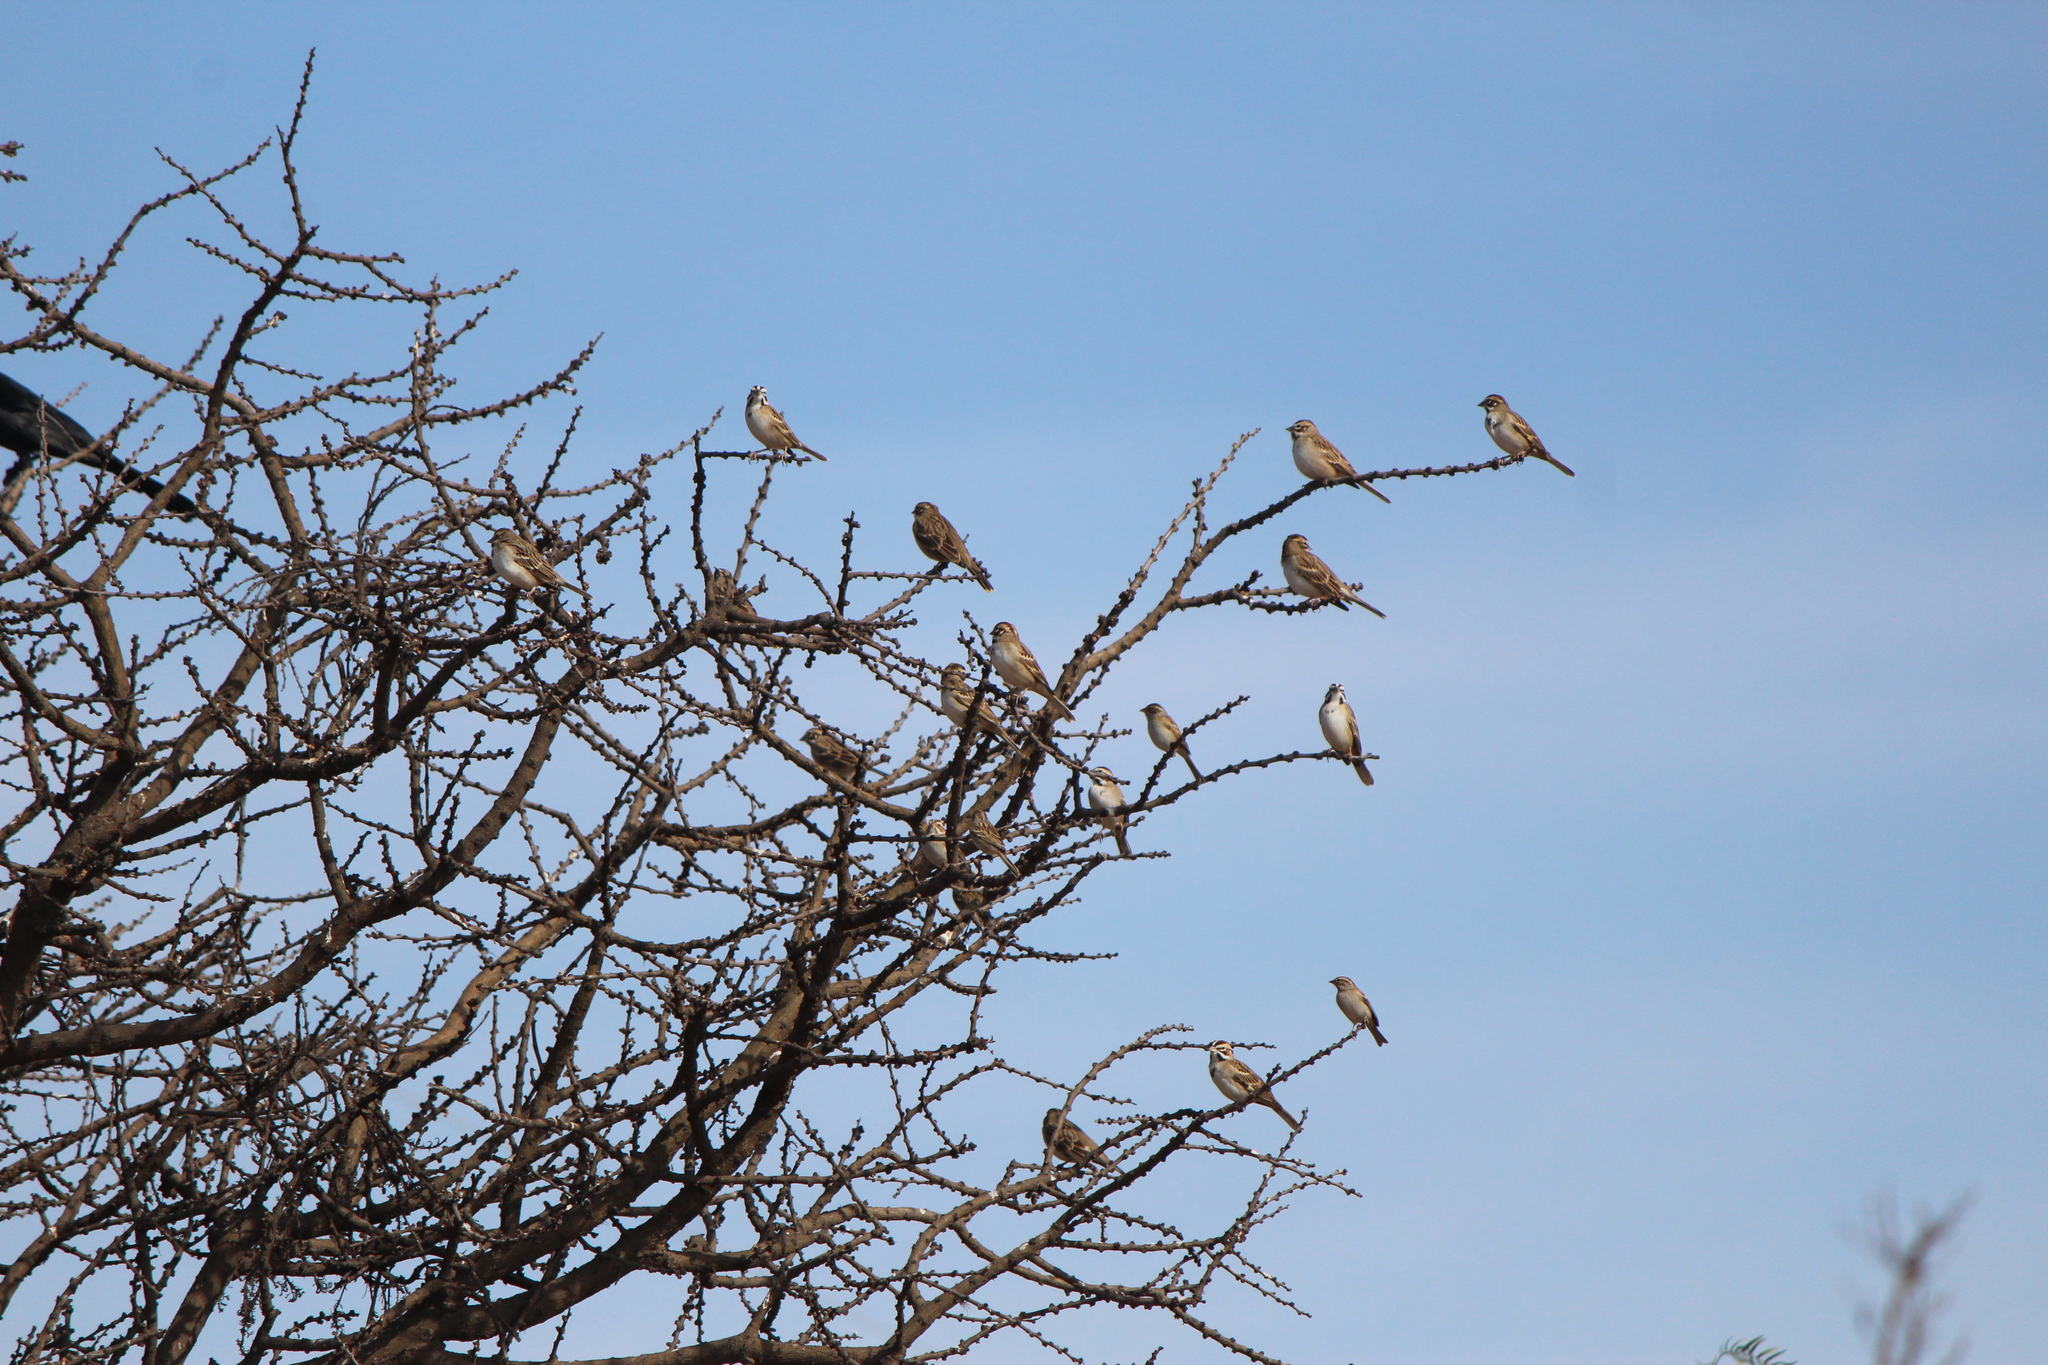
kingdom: Animalia
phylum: Chordata
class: Aves
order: Passeriformes
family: Passerellidae
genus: Chondestes
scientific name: Chondestes grammacus
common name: Lark sparrow
